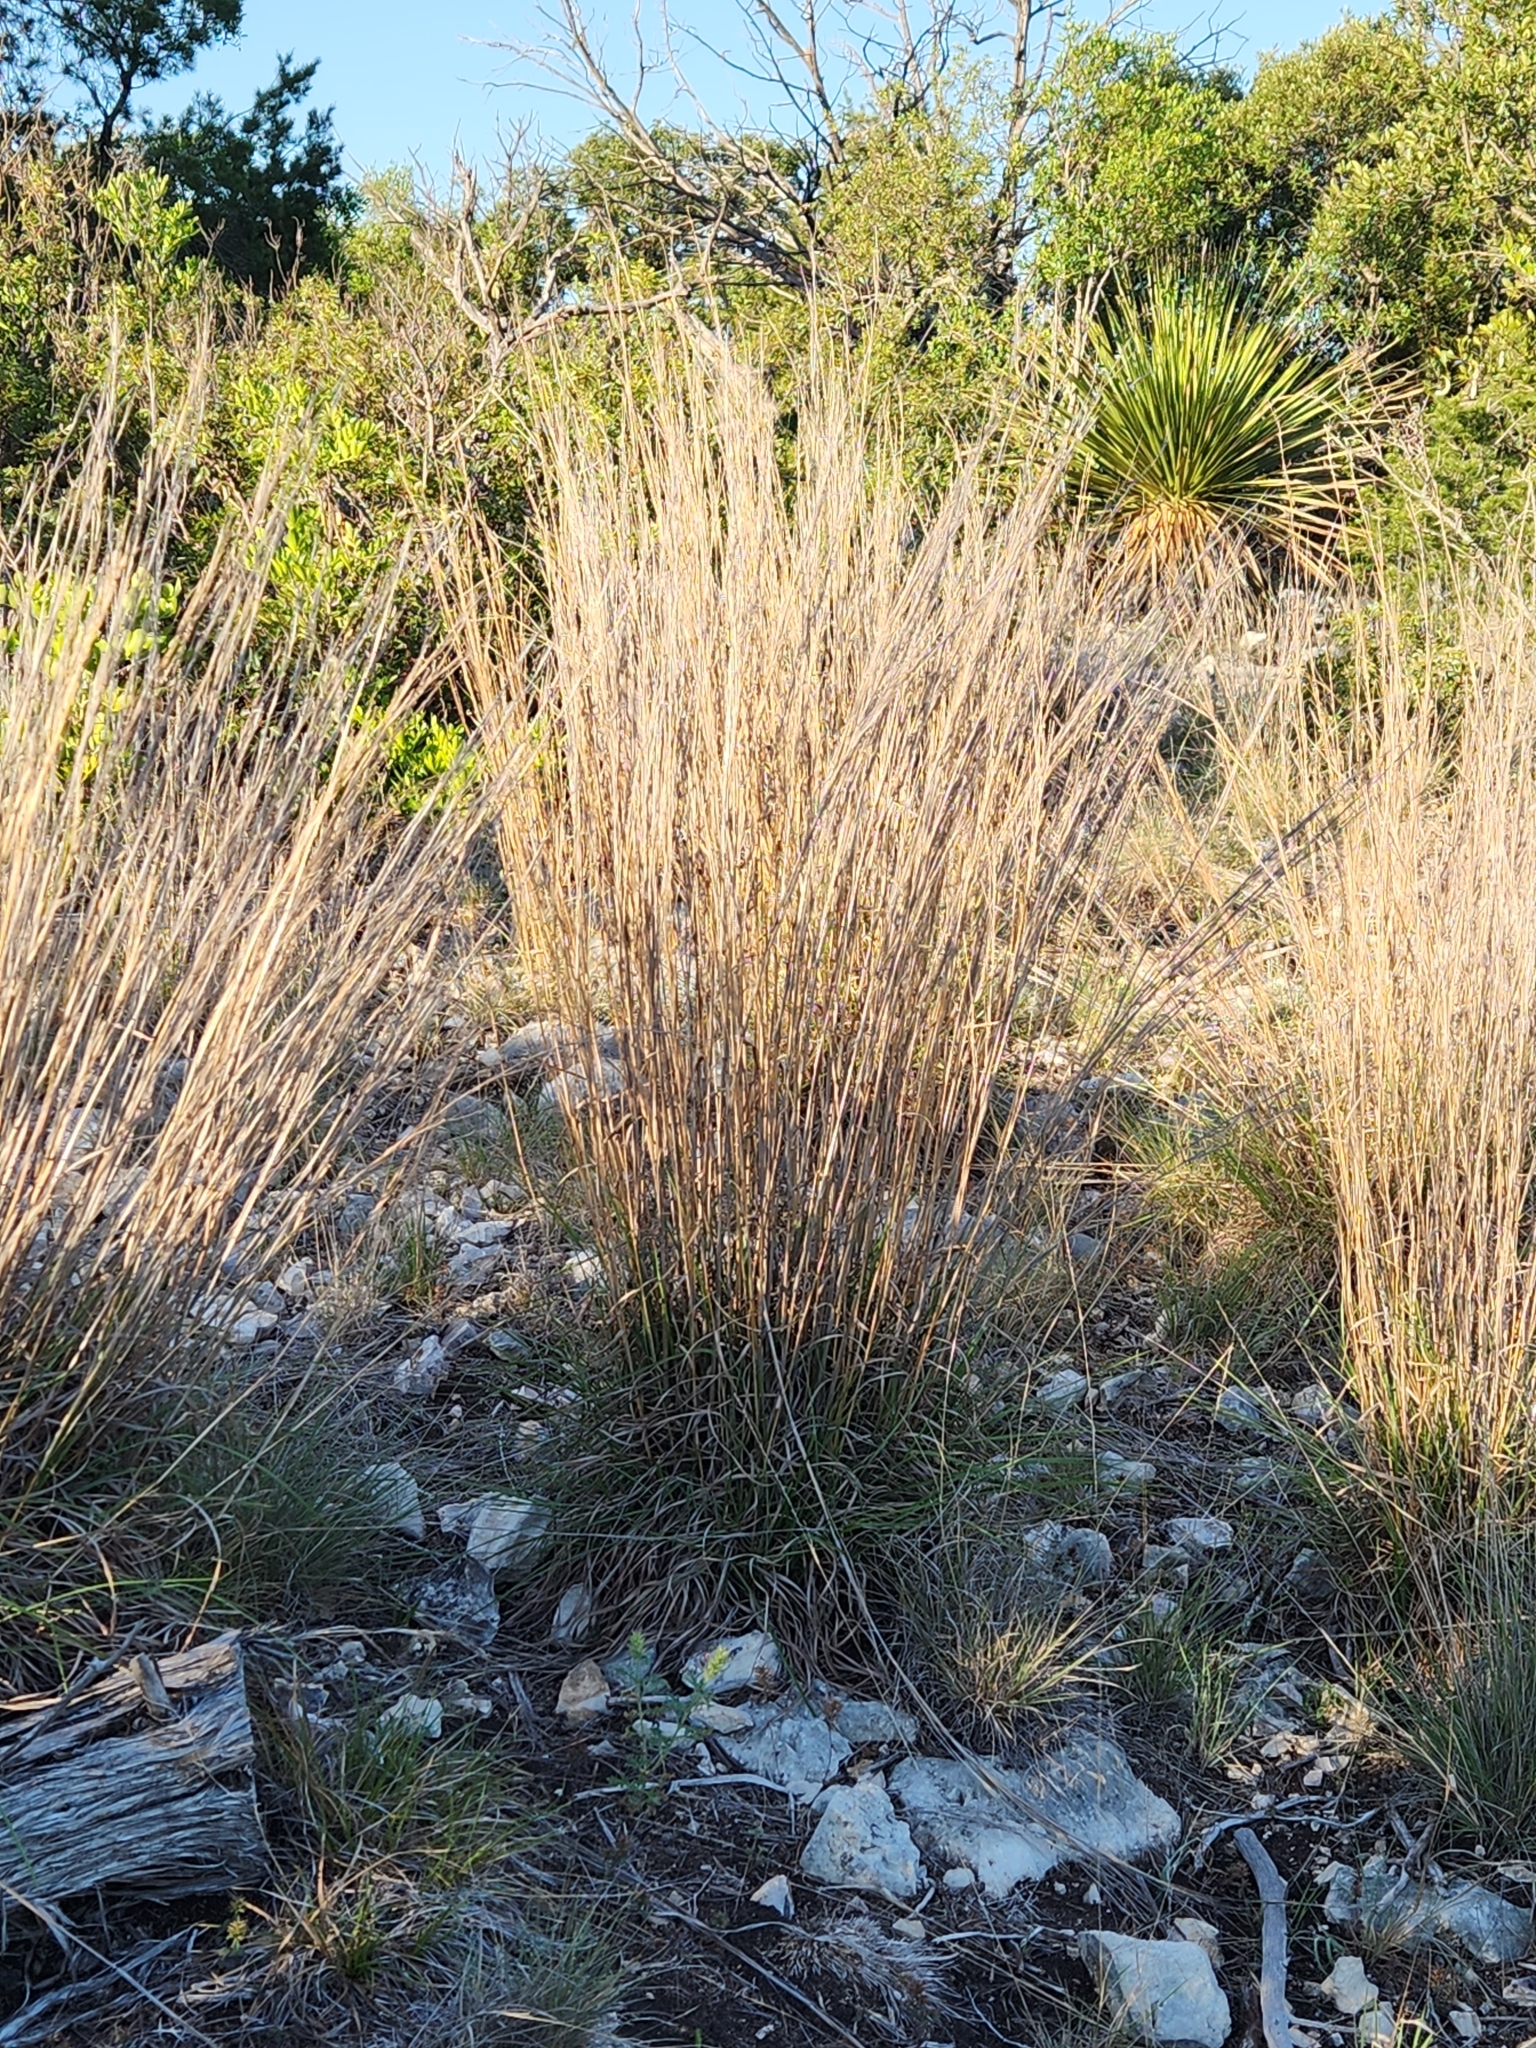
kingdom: Plantae
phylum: Tracheophyta
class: Liliopsida
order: Poales
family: Poaceae
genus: Schizachyrium
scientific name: Schizachyrium scoparium
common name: Little bluestem
